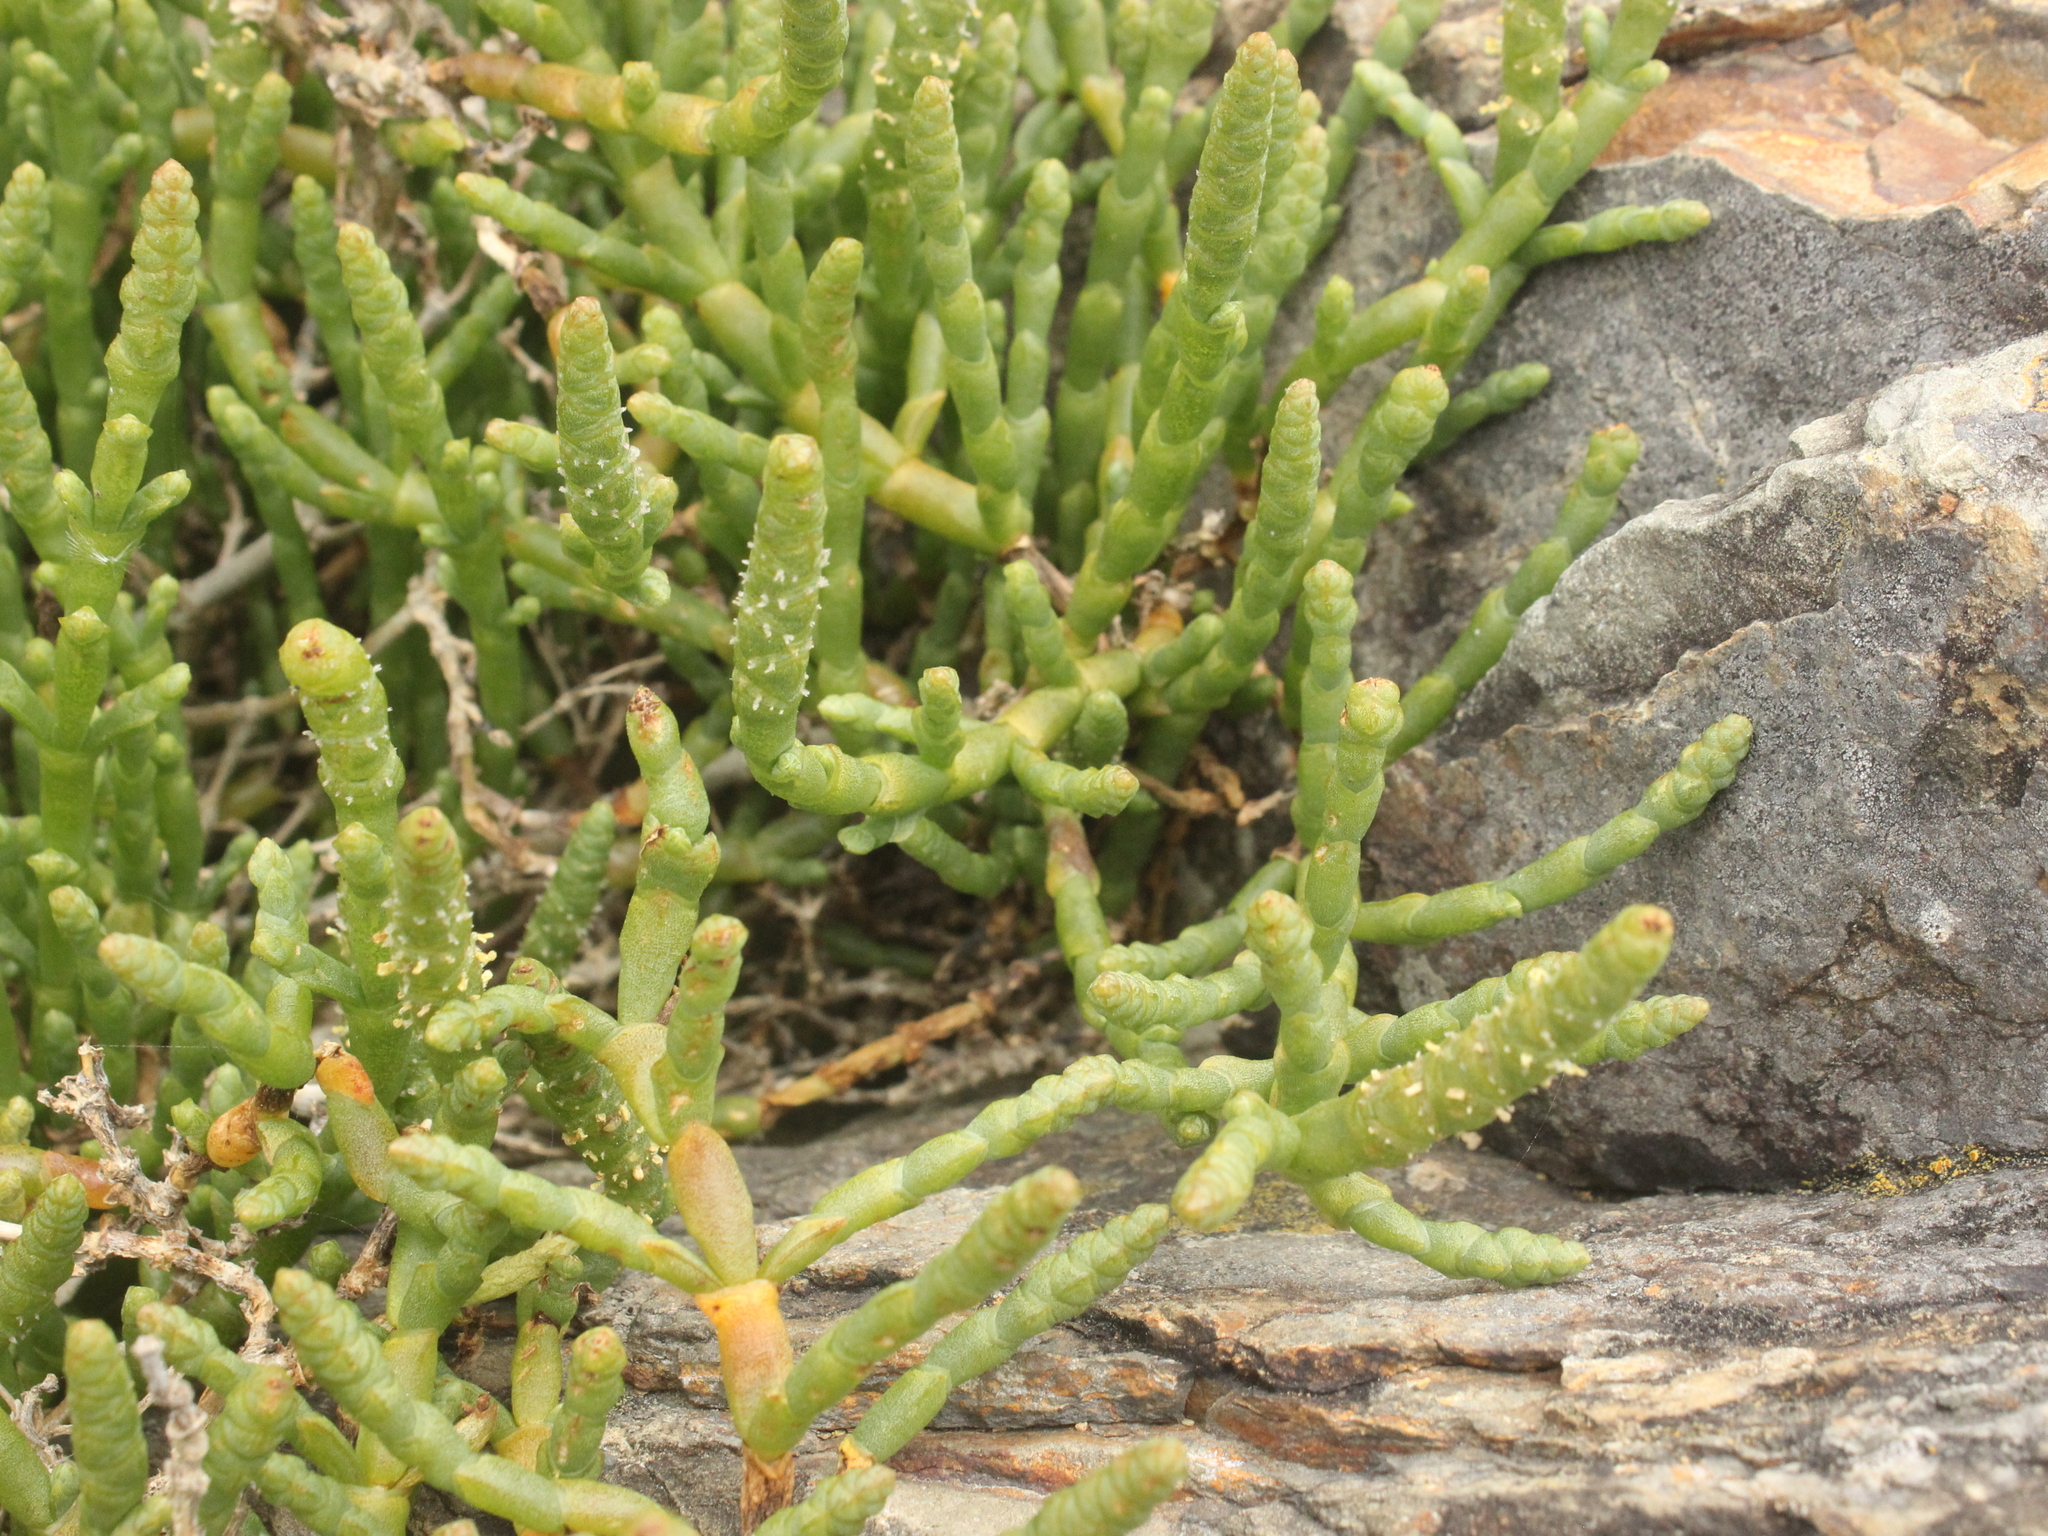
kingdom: Plantae
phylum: Tracheophyta
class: Magnoliopsida
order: Caryophyllales
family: Amaranthaceae
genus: Salicornia
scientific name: Salicornia quinqueflora
